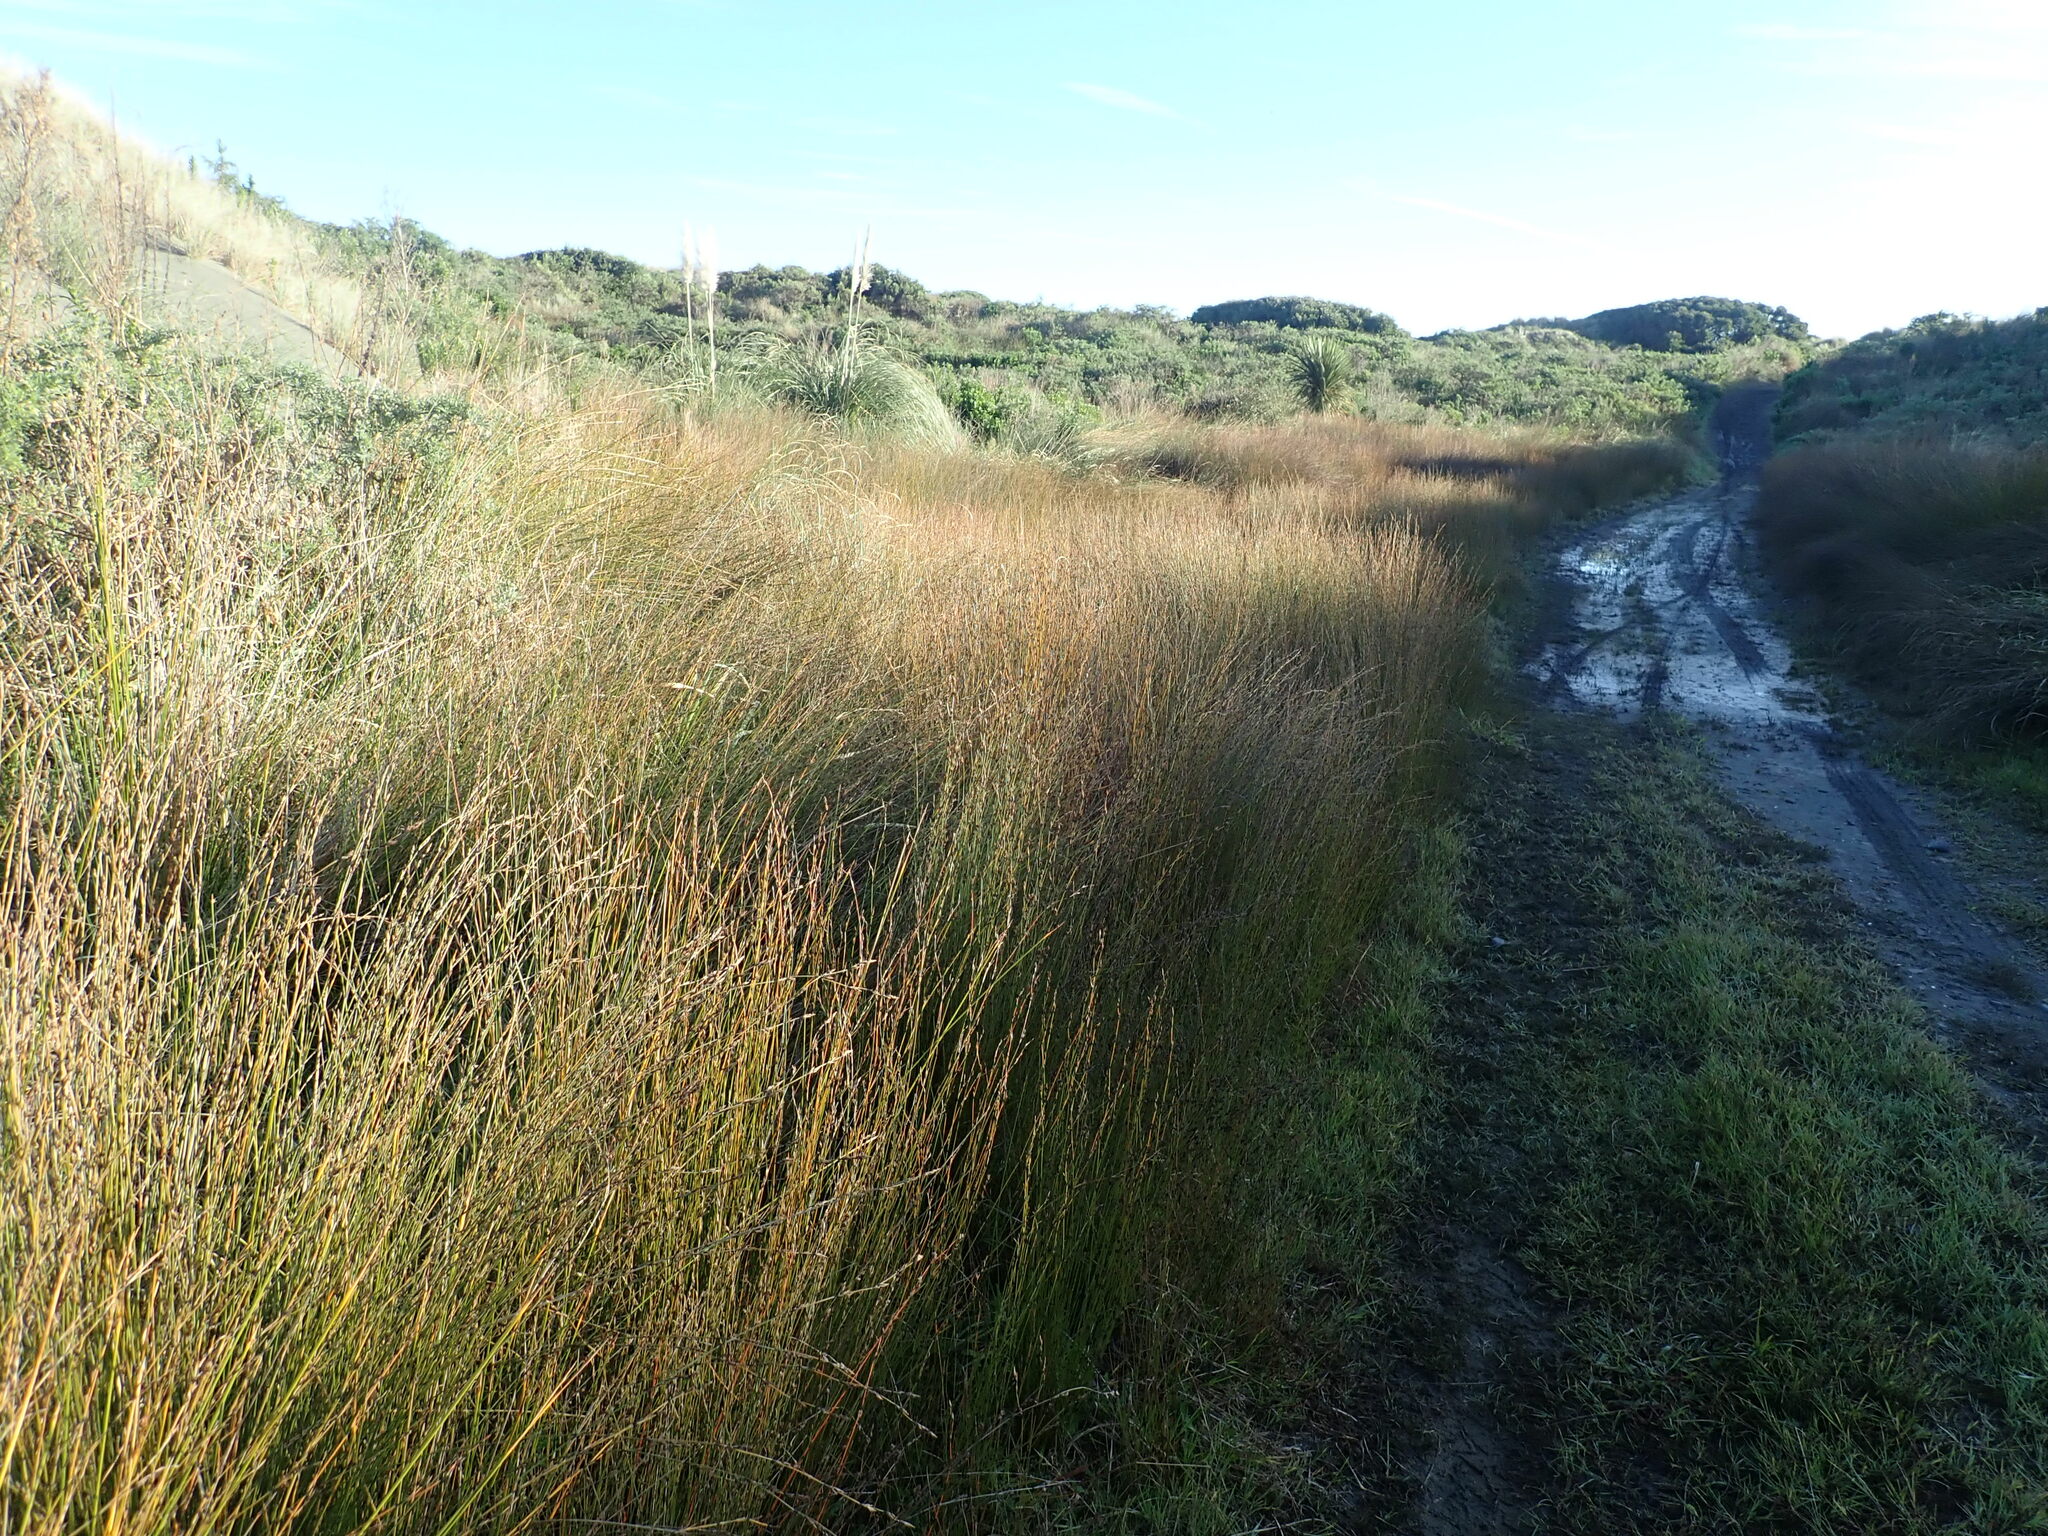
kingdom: Plantae
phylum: Tracheophyta
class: Liliopsida
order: Poales
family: Restionaceae
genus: Apodasmia
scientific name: Apodasmia similis
